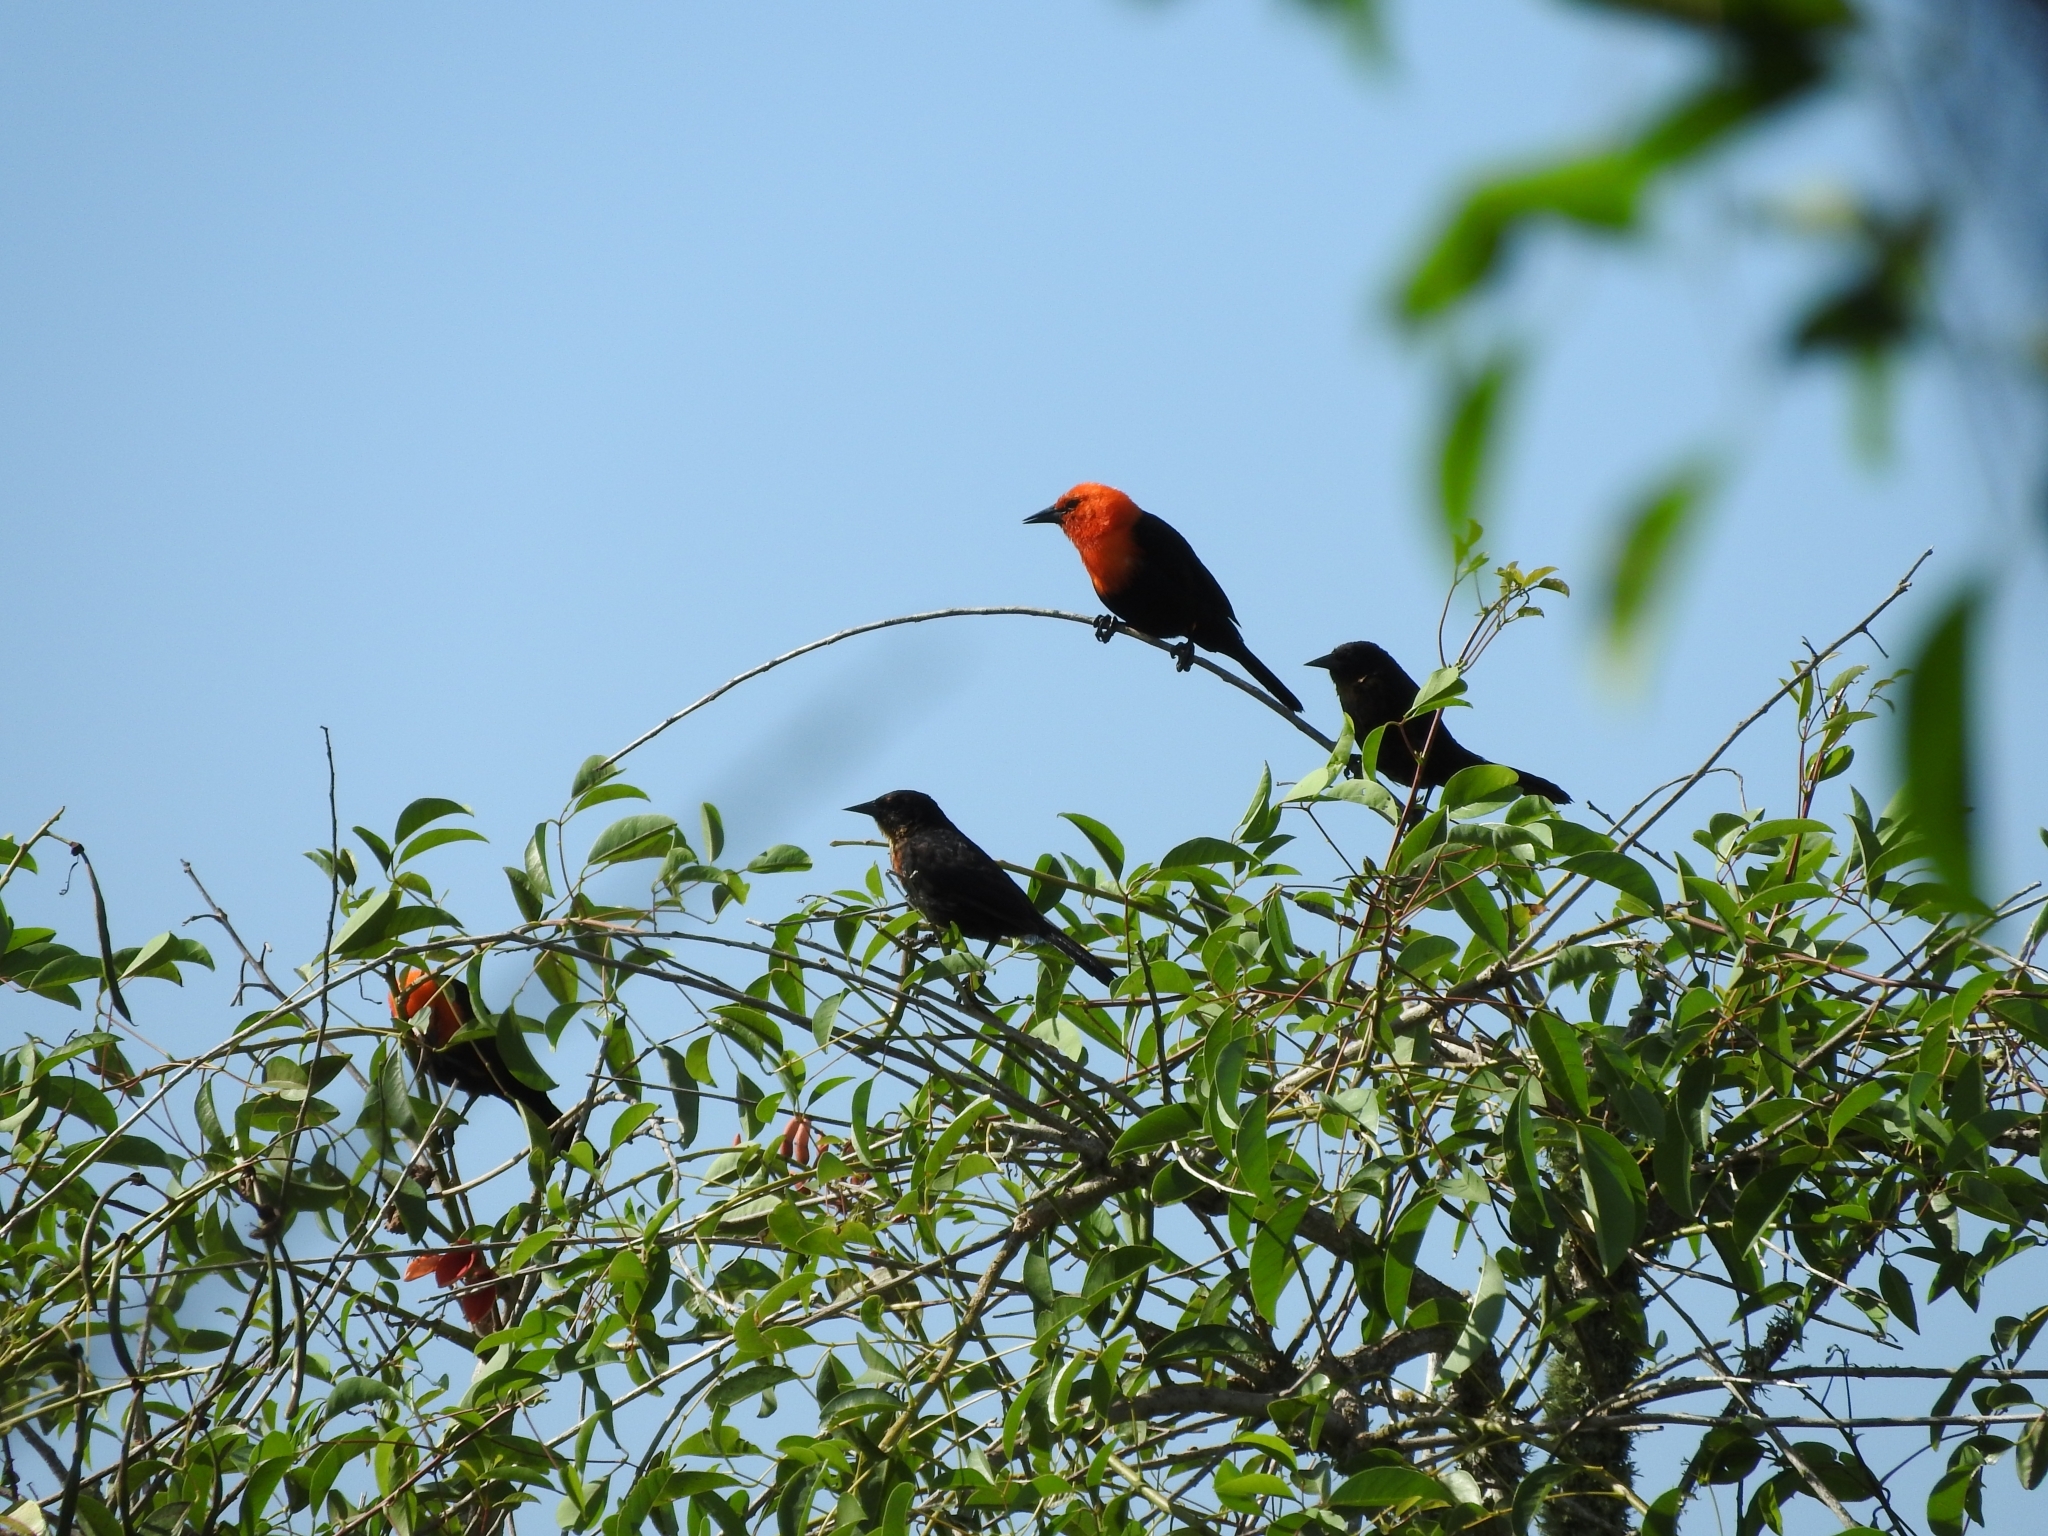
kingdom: Animalia
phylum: Chordata
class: Aves
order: Passeriformes
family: Icteridae
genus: Amblyramphus
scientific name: Amblyramphus holosericeus
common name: Scarlet-headed blackbird
